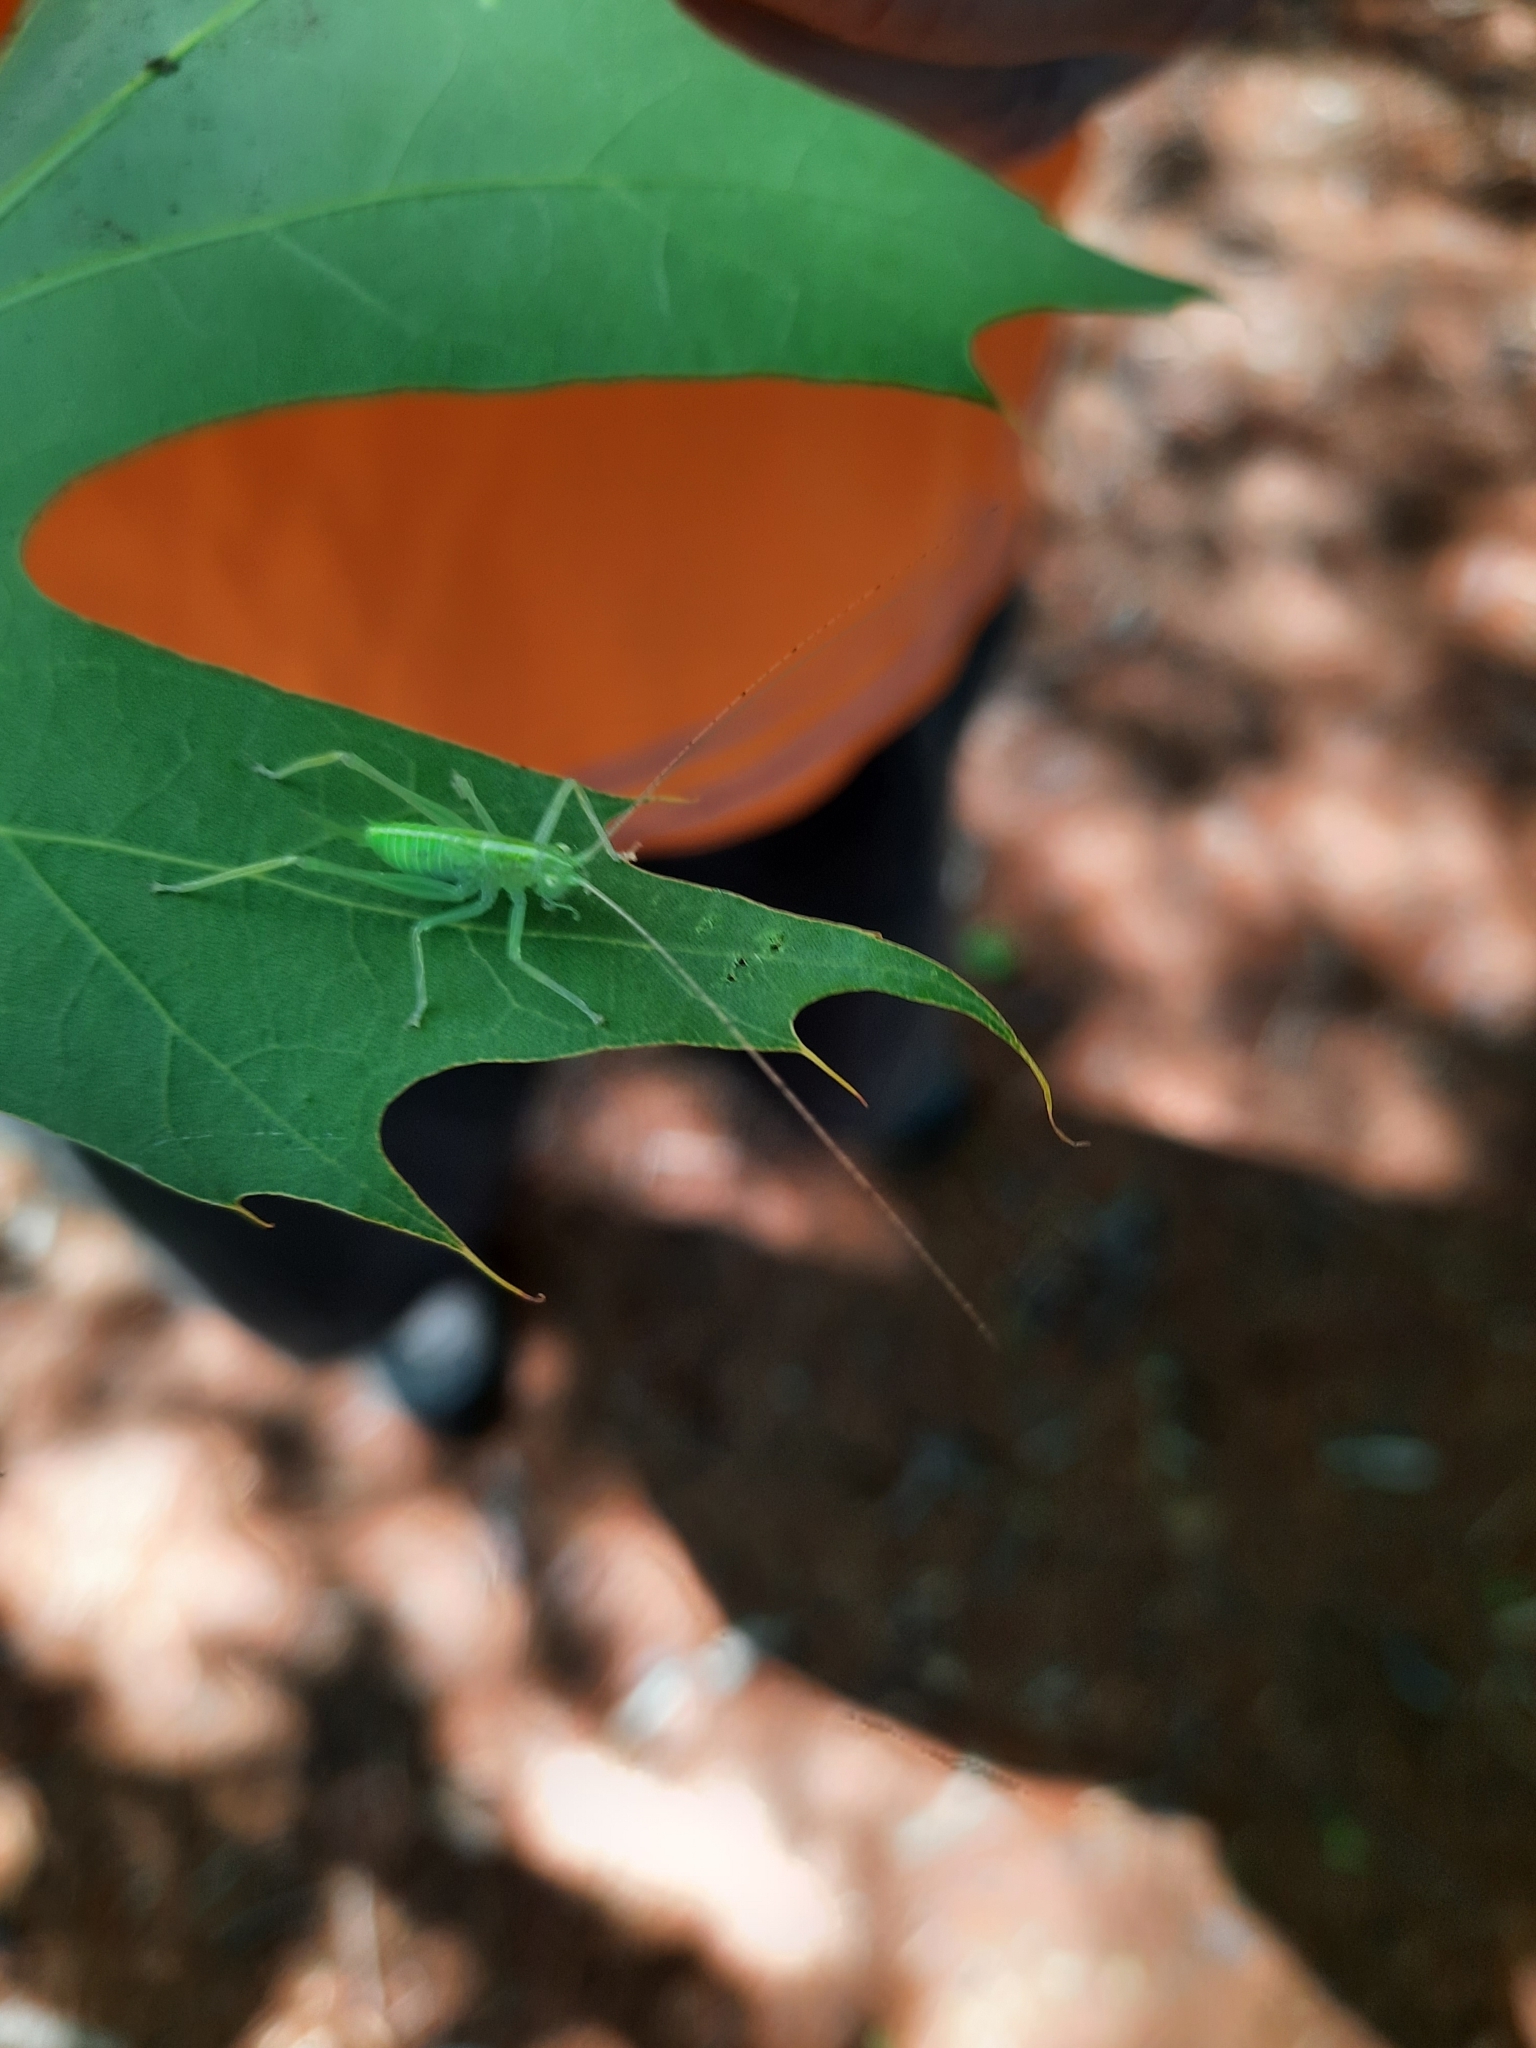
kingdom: Animalia
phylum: Arthropoda
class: Insecta
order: Orthoptera
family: Tettigoniidae
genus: Meconema
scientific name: Meconema thalassinum
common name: Oak bush-cricket
